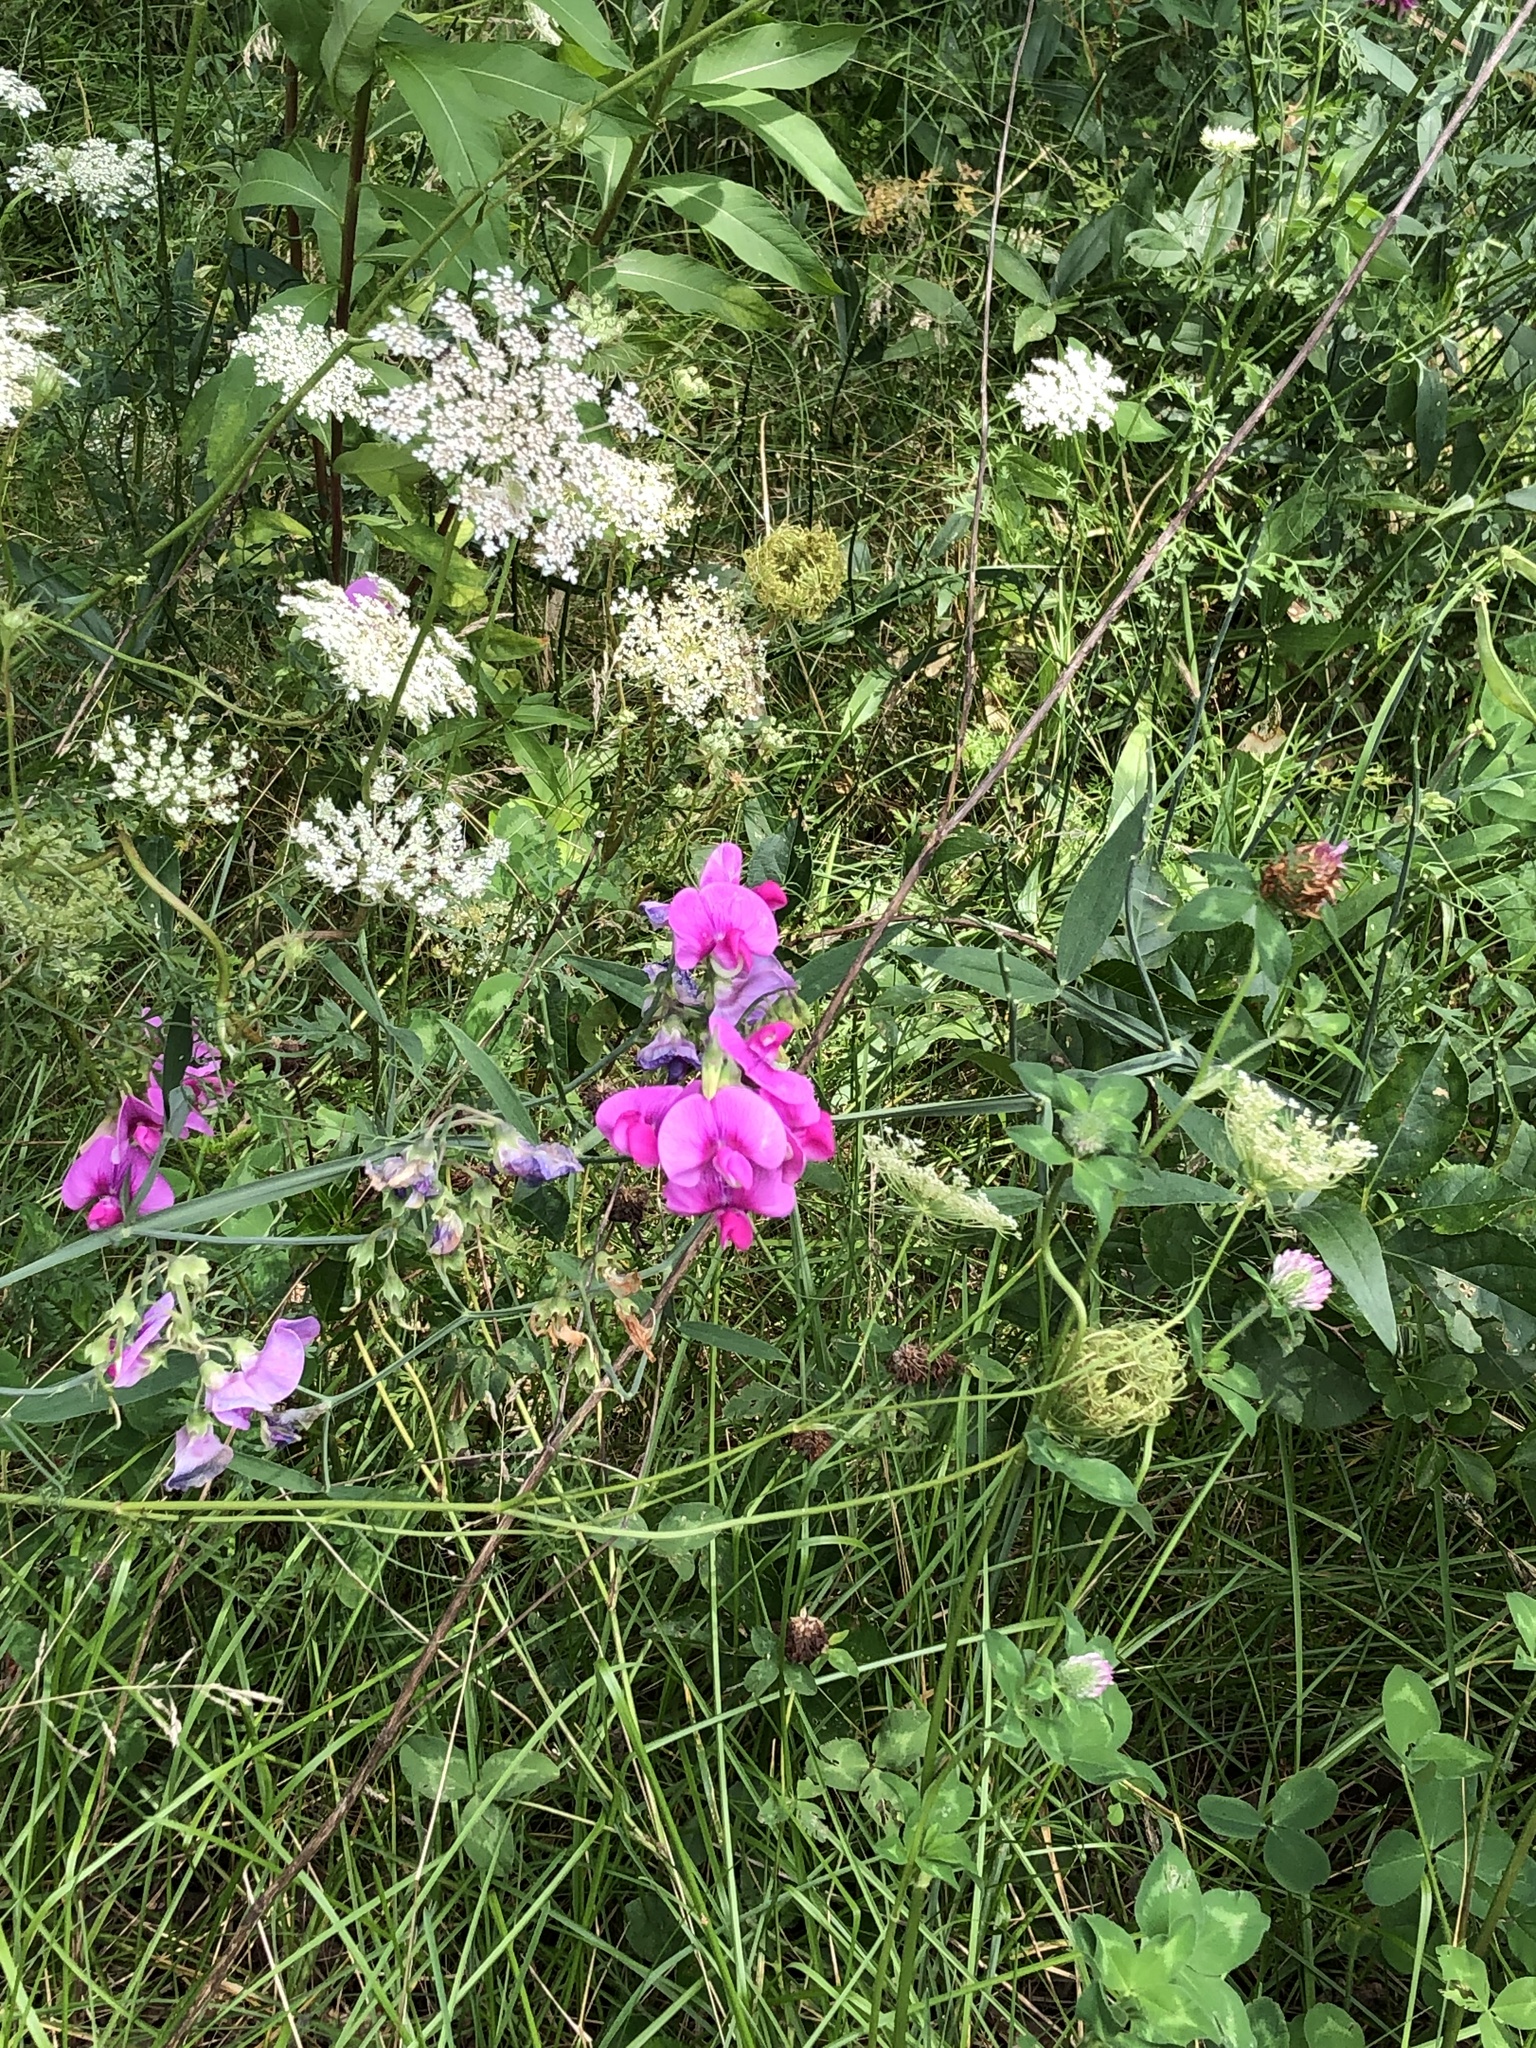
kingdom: Plantae
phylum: Tracheophyta
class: Magnoliopsida
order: Fabales
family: Fabaceae
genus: Lathyrus
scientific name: Lathyrus latifolius
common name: Perennial pea
